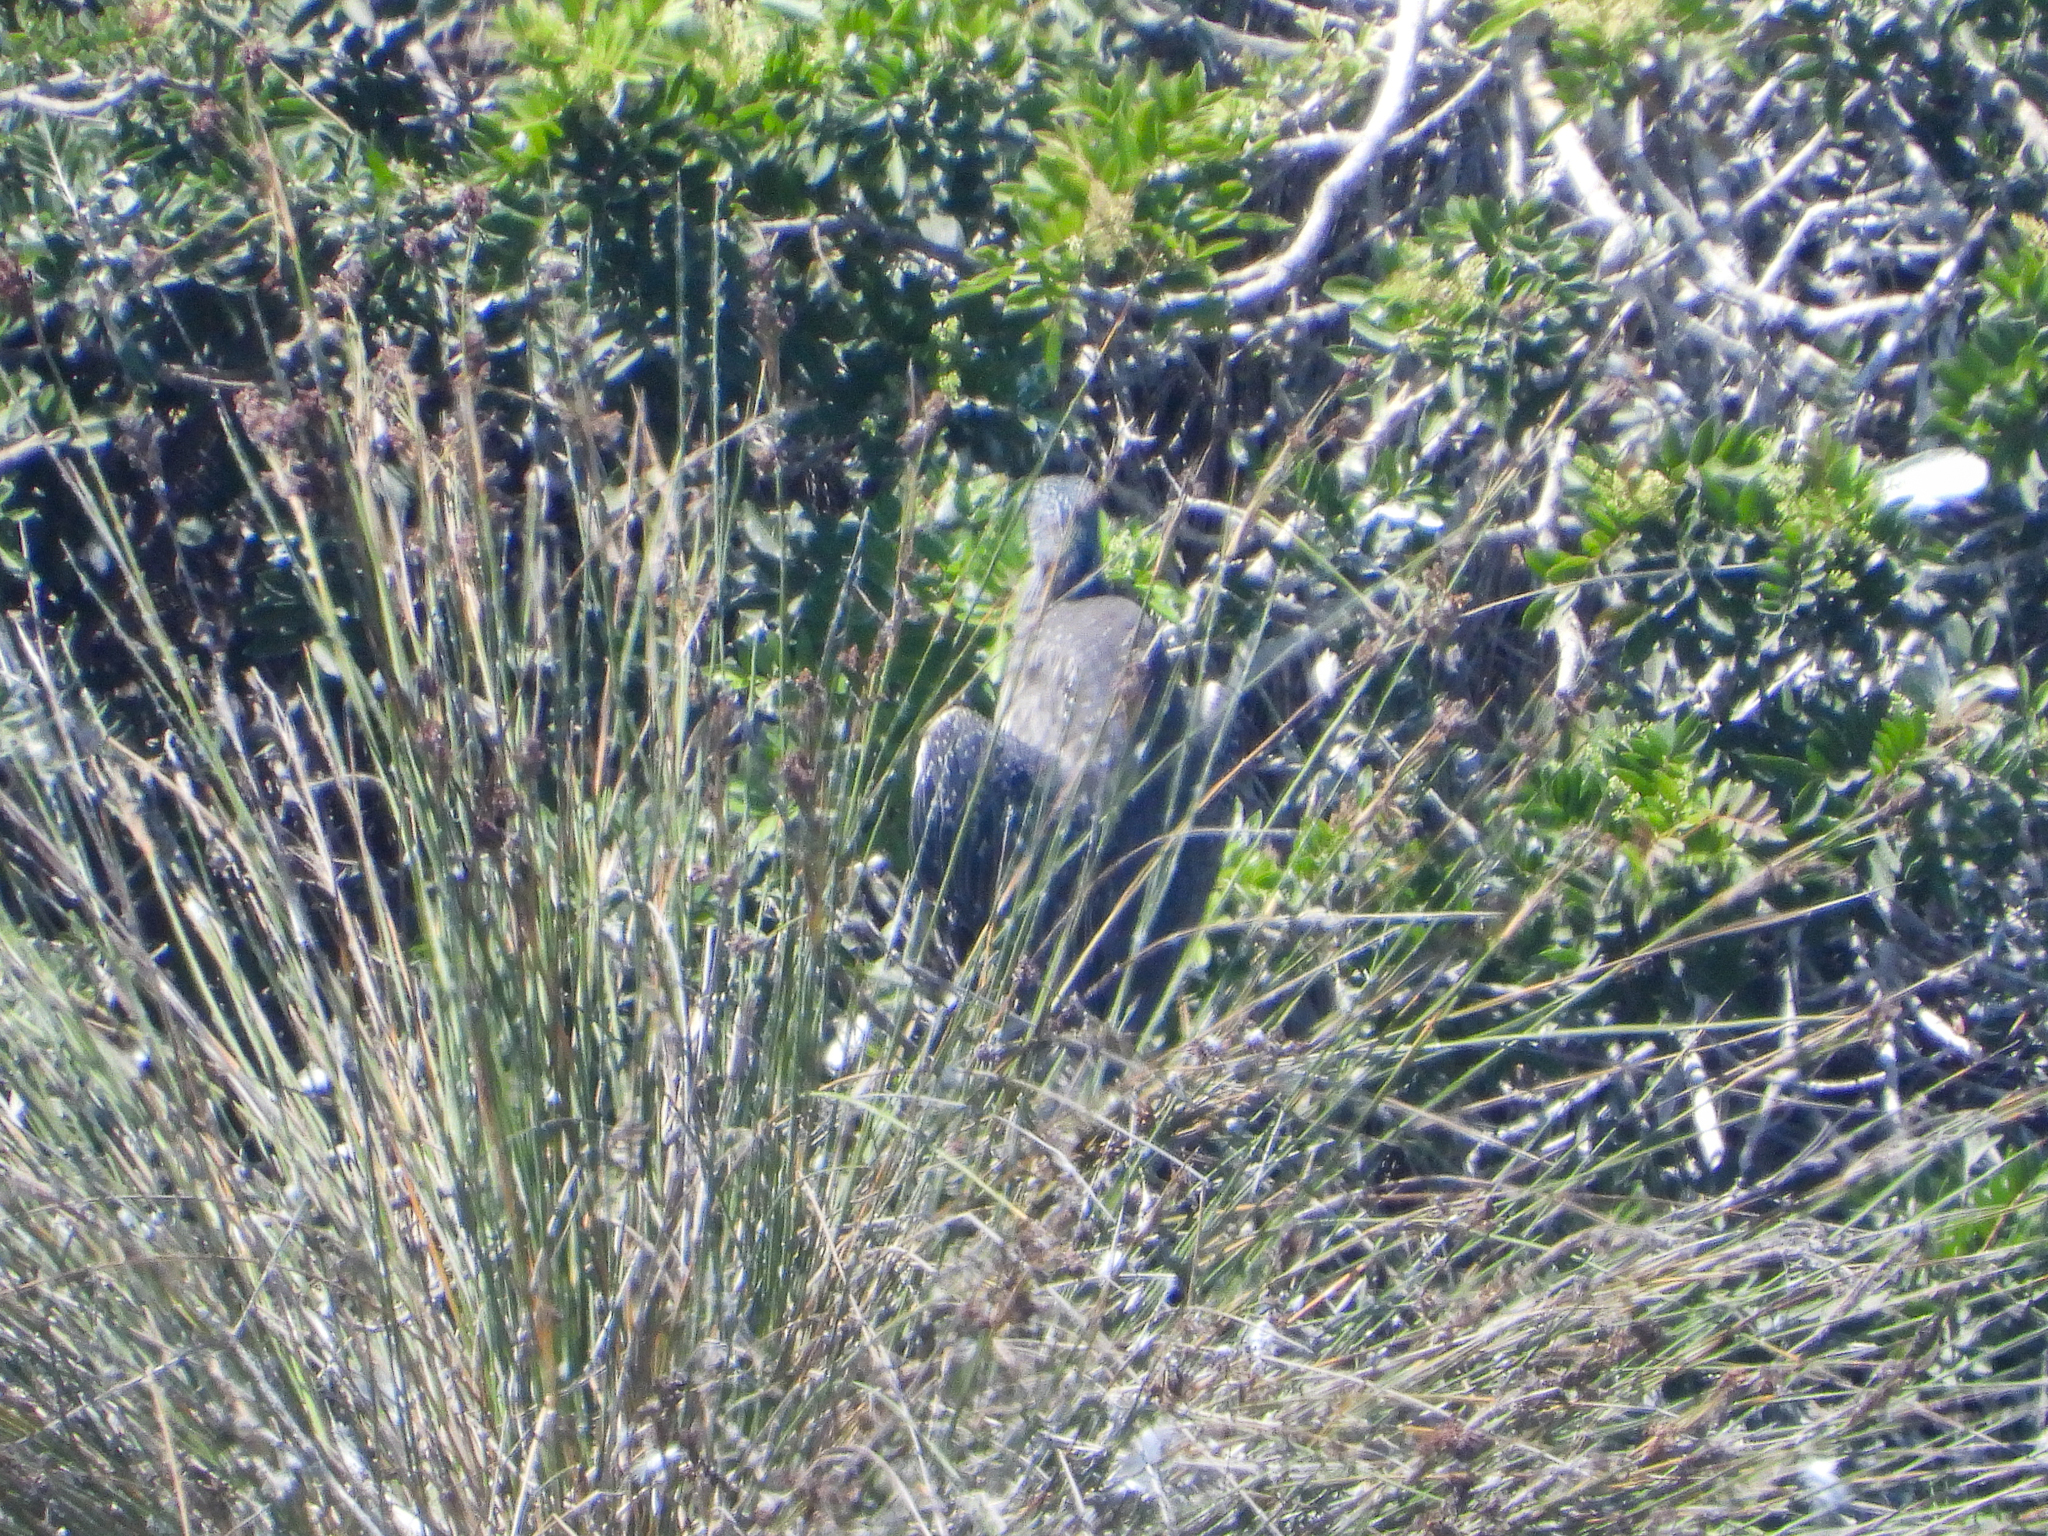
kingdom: Animalia
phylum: Chordata
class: Aves
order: Pelecaniformes
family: Ardeidae
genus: Nyctanassa
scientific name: Nyctanassa violacea
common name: Yellow-crowned night heron
